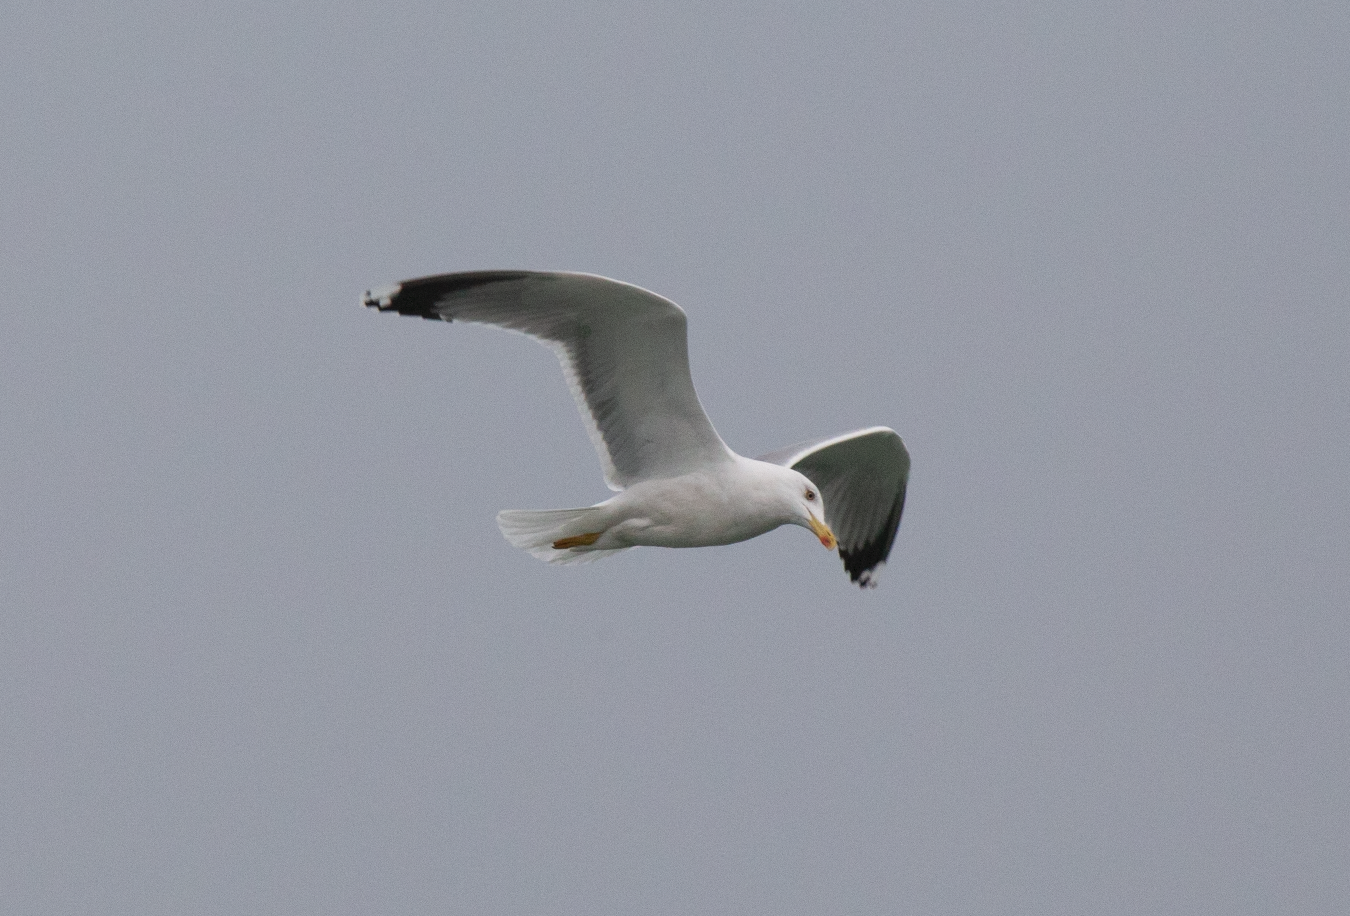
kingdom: Animalia
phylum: Chordata
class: Aves
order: Charadriiformes
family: Laridae
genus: Larus
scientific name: Larus michahellis
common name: Yellow-legged gull
